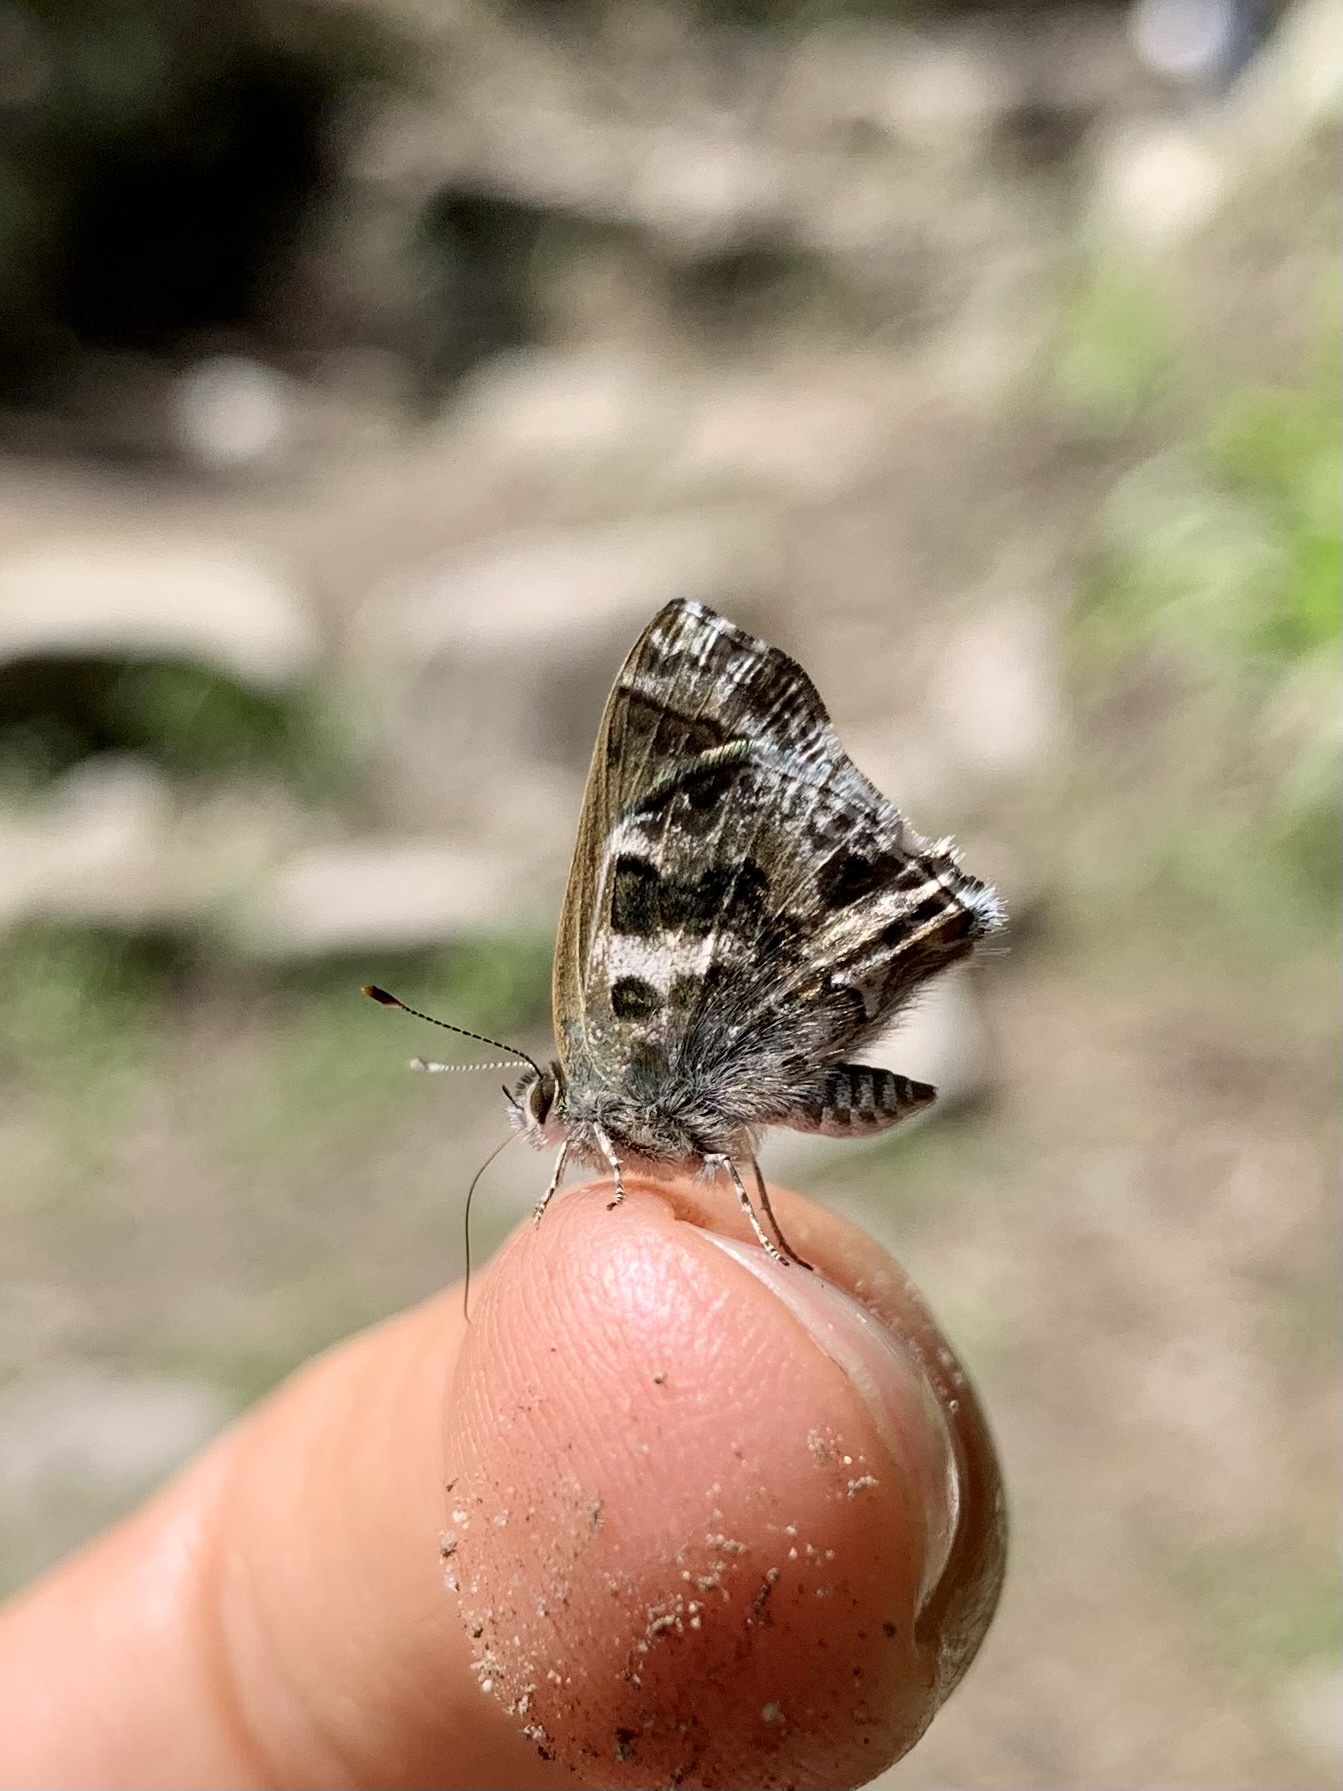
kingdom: Animalia
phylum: Arthropoda
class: Insecta
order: Lepidoptera
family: Lycaenidae
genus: Strymon
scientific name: Strymon
